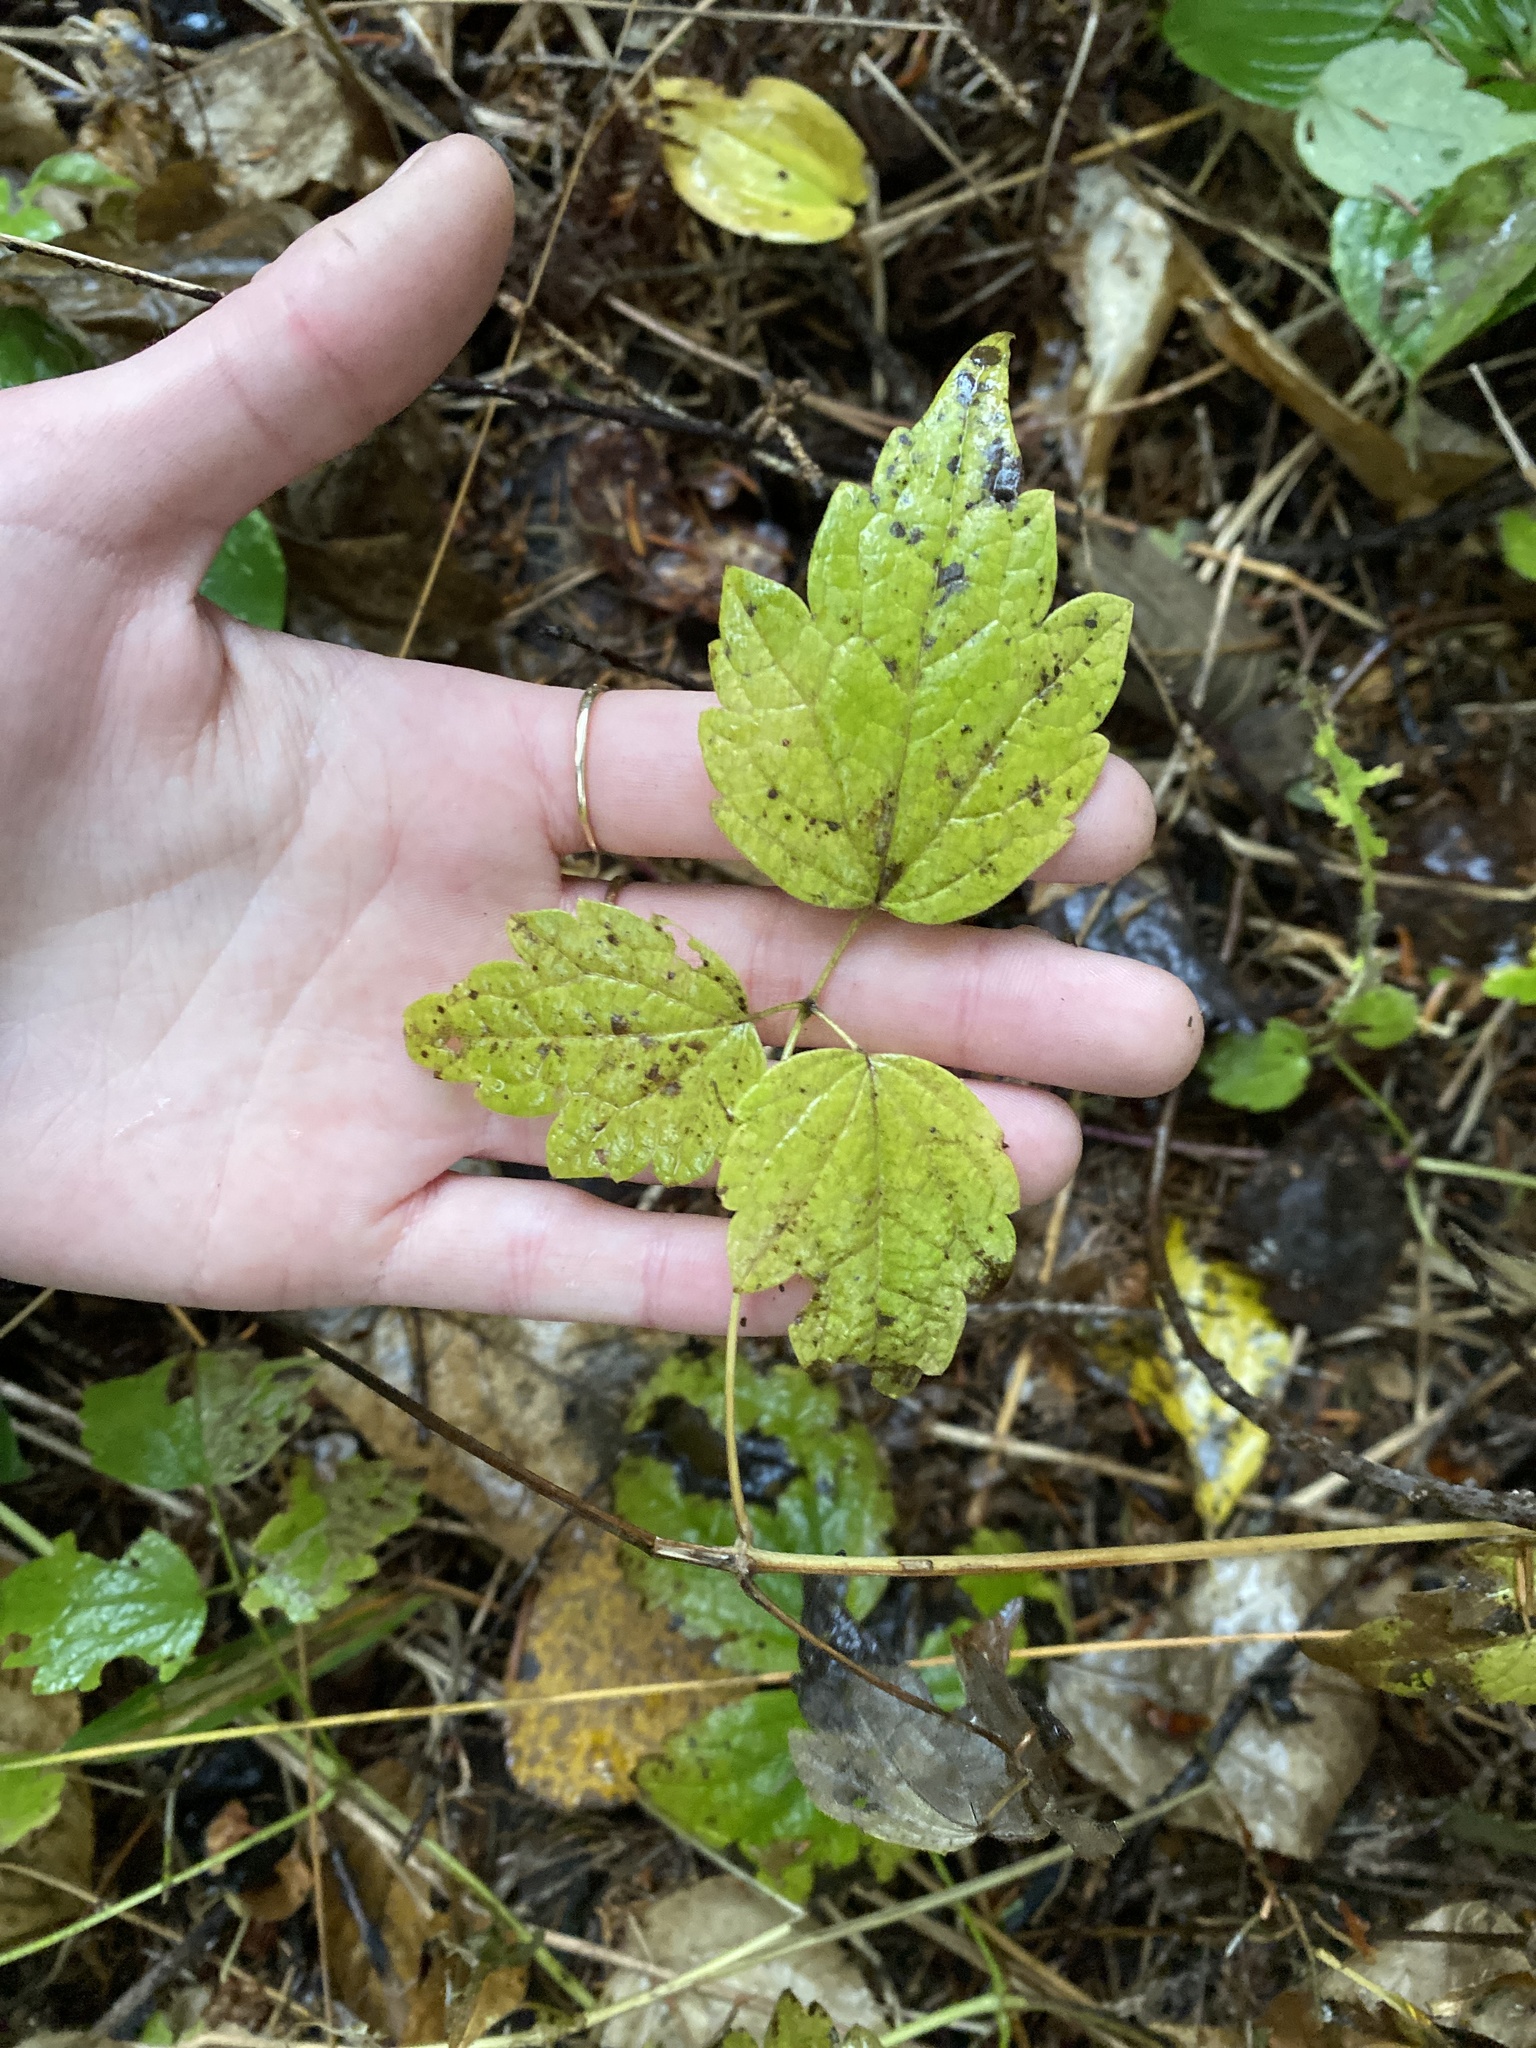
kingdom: Plantae
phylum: Tracheophyta
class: Magnoliopsida
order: Ranunculales
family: Ranunculaceae
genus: Clematis
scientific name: Clematis virginiana
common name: Virgin's-bower
